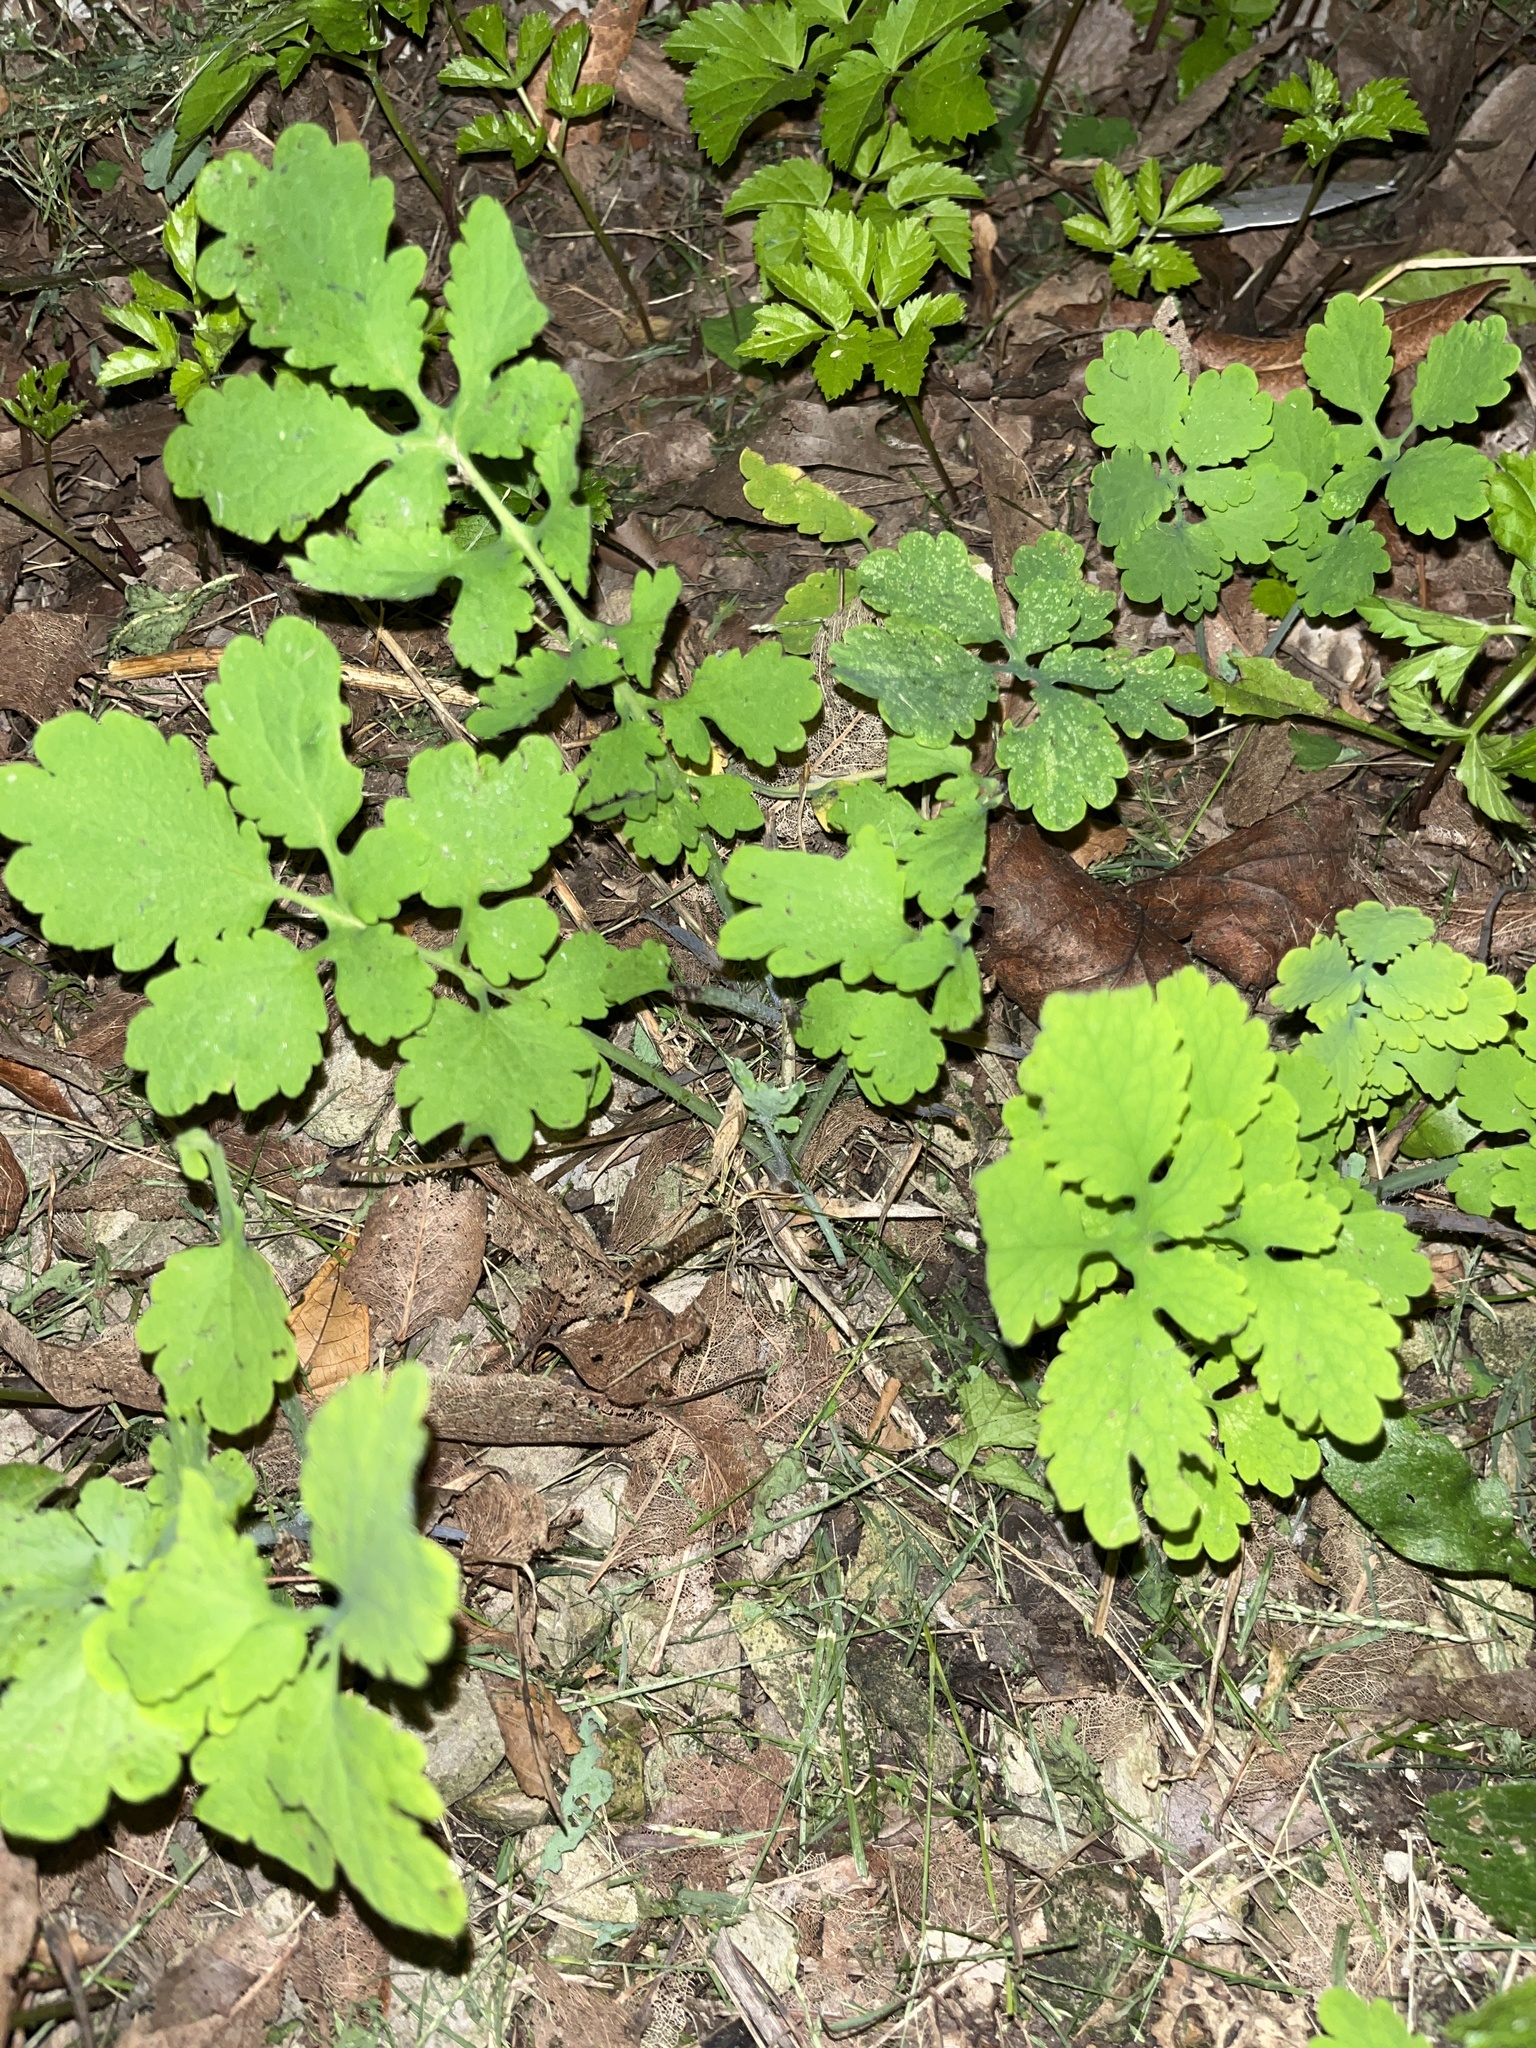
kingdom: Plantae
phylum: Tracheophyta
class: Magnoliopsida
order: Ranunculales
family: Papaveraceae
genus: Chelidonium
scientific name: Chelidonium majus
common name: Greater celandine
